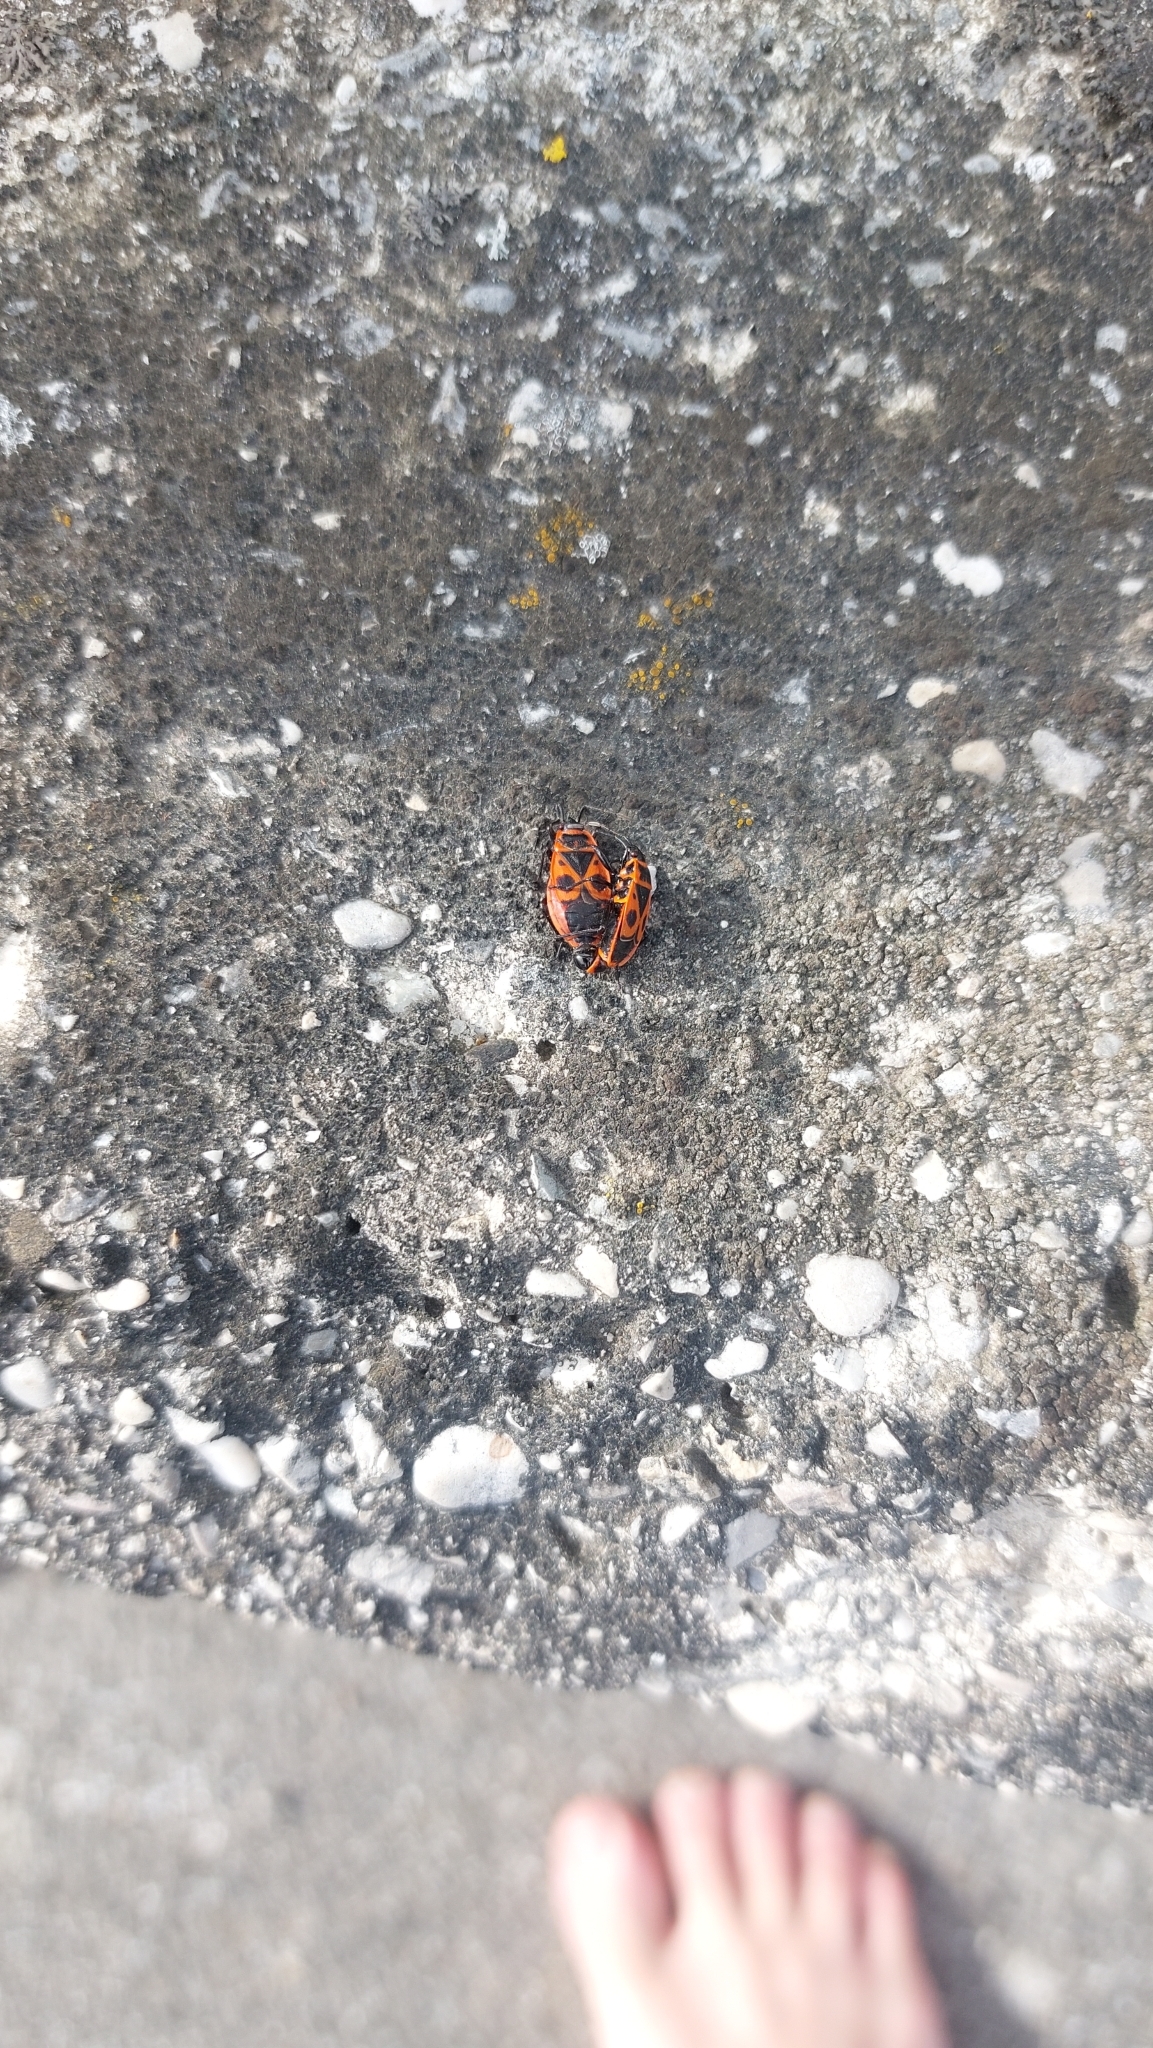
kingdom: Animalia
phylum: Arthropoda
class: Insecta
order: Hemiptera
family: Pyrrhocoridae
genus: Pyrrhocoris
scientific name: Pyrrhocoris apterus
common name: Firebug
